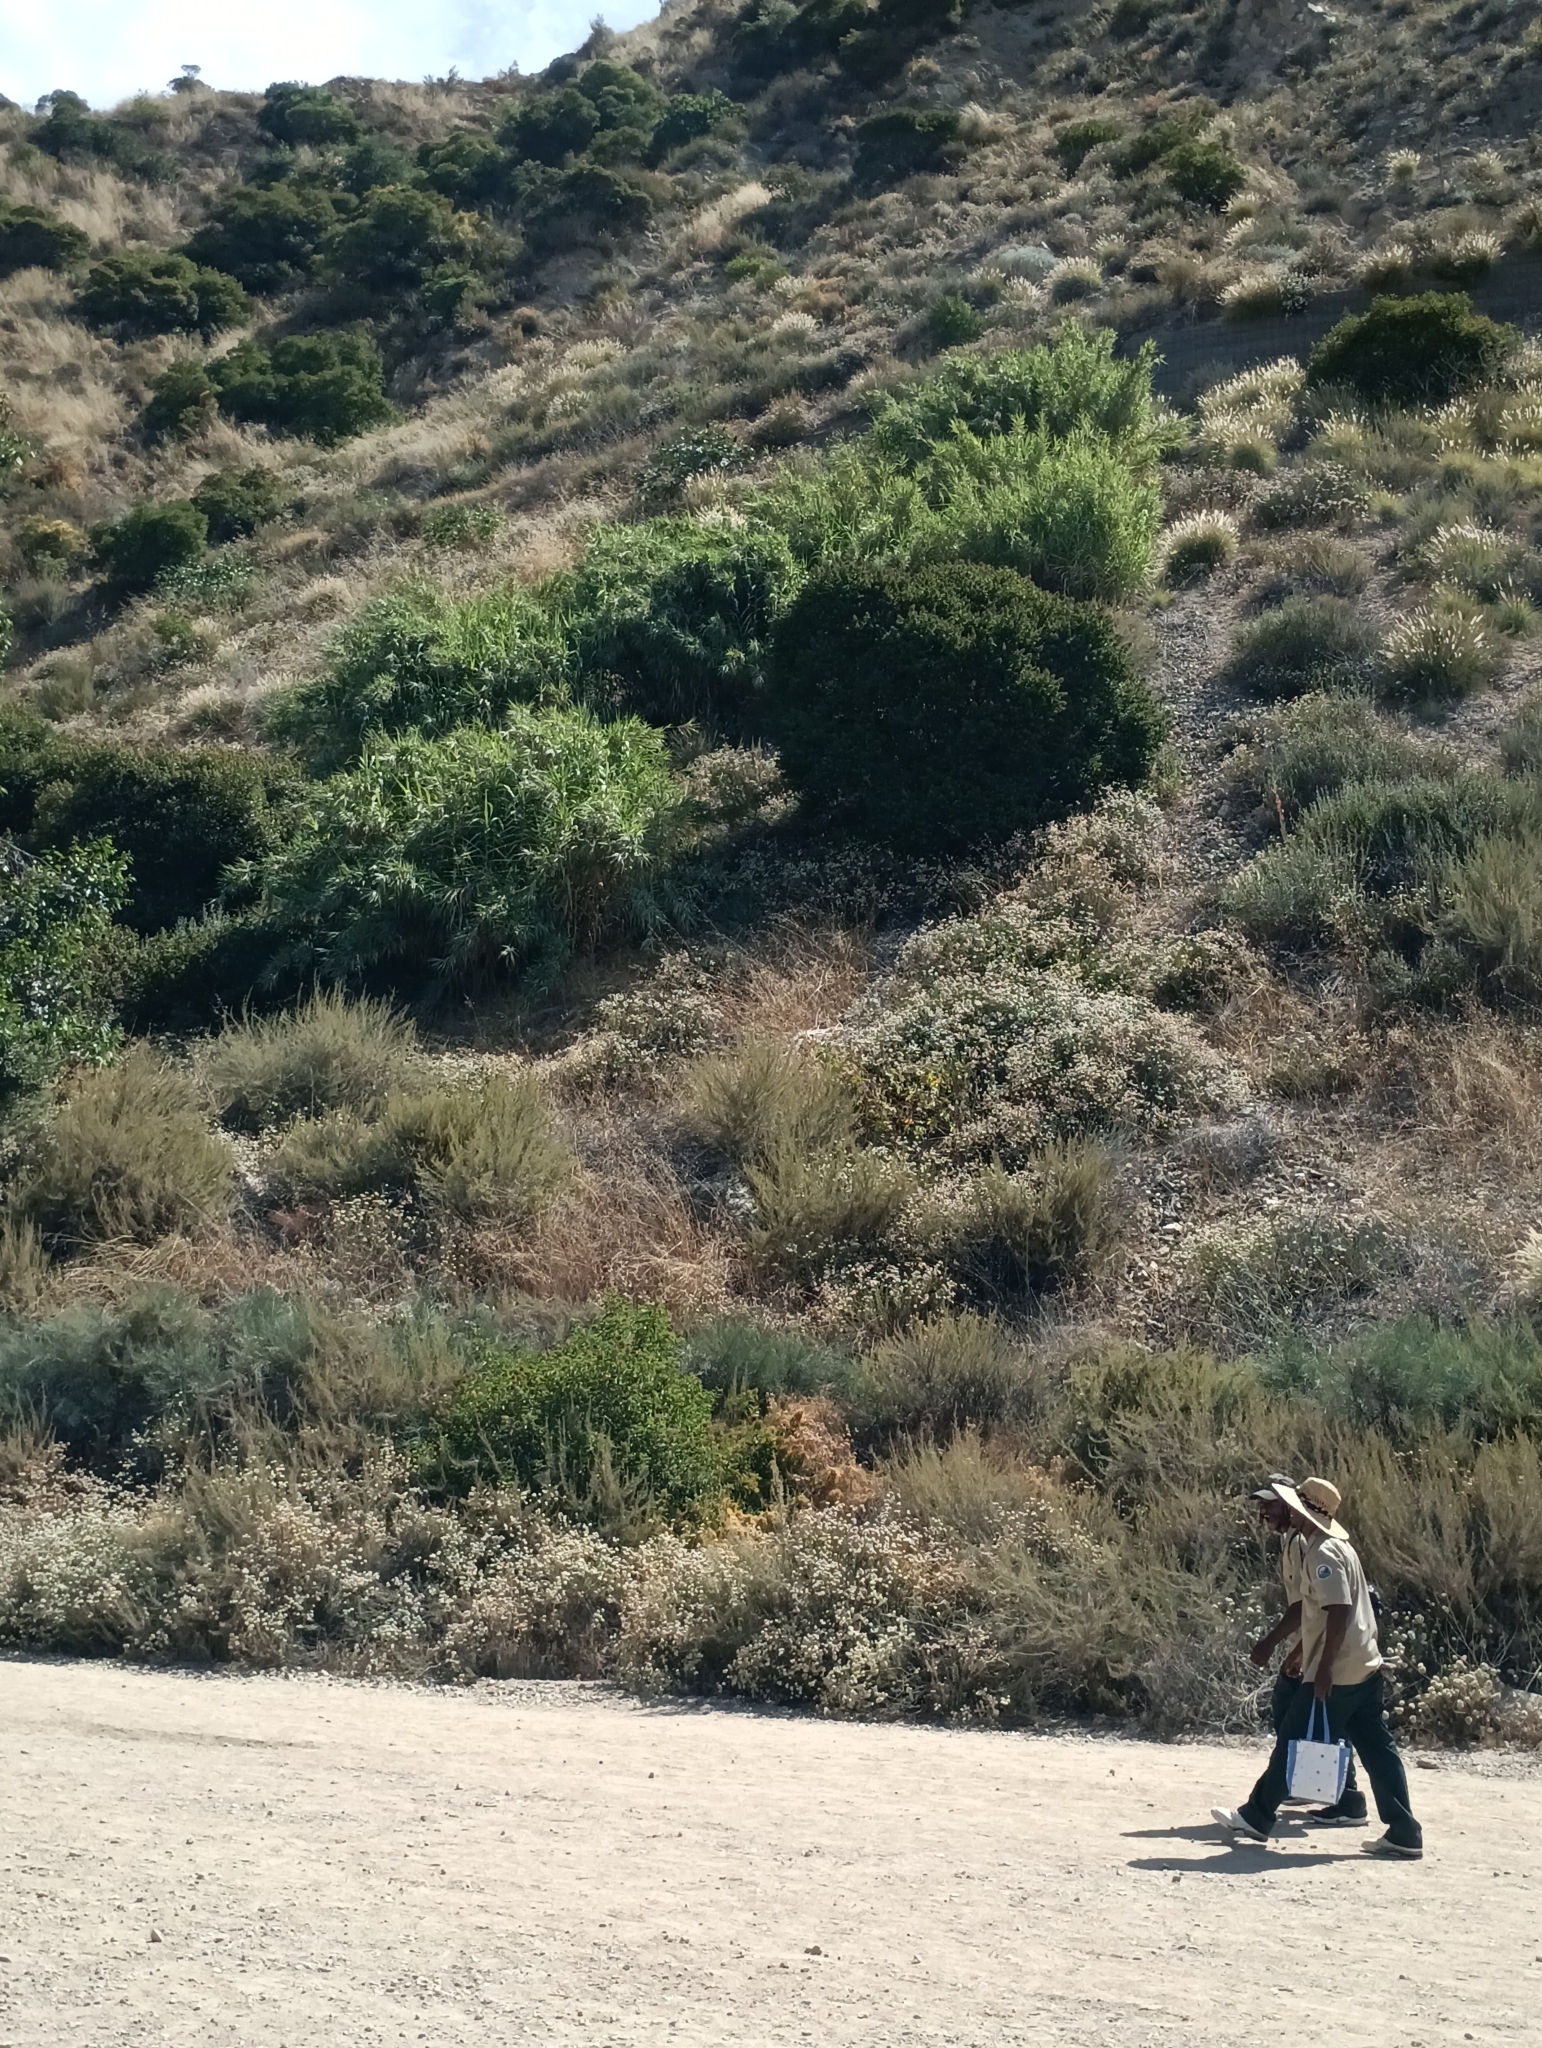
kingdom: Plantae
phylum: Tracheophyta
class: Liliopsida
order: Poales
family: Poaceae
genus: Arundo
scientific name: Arundo donax
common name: Giant reed
